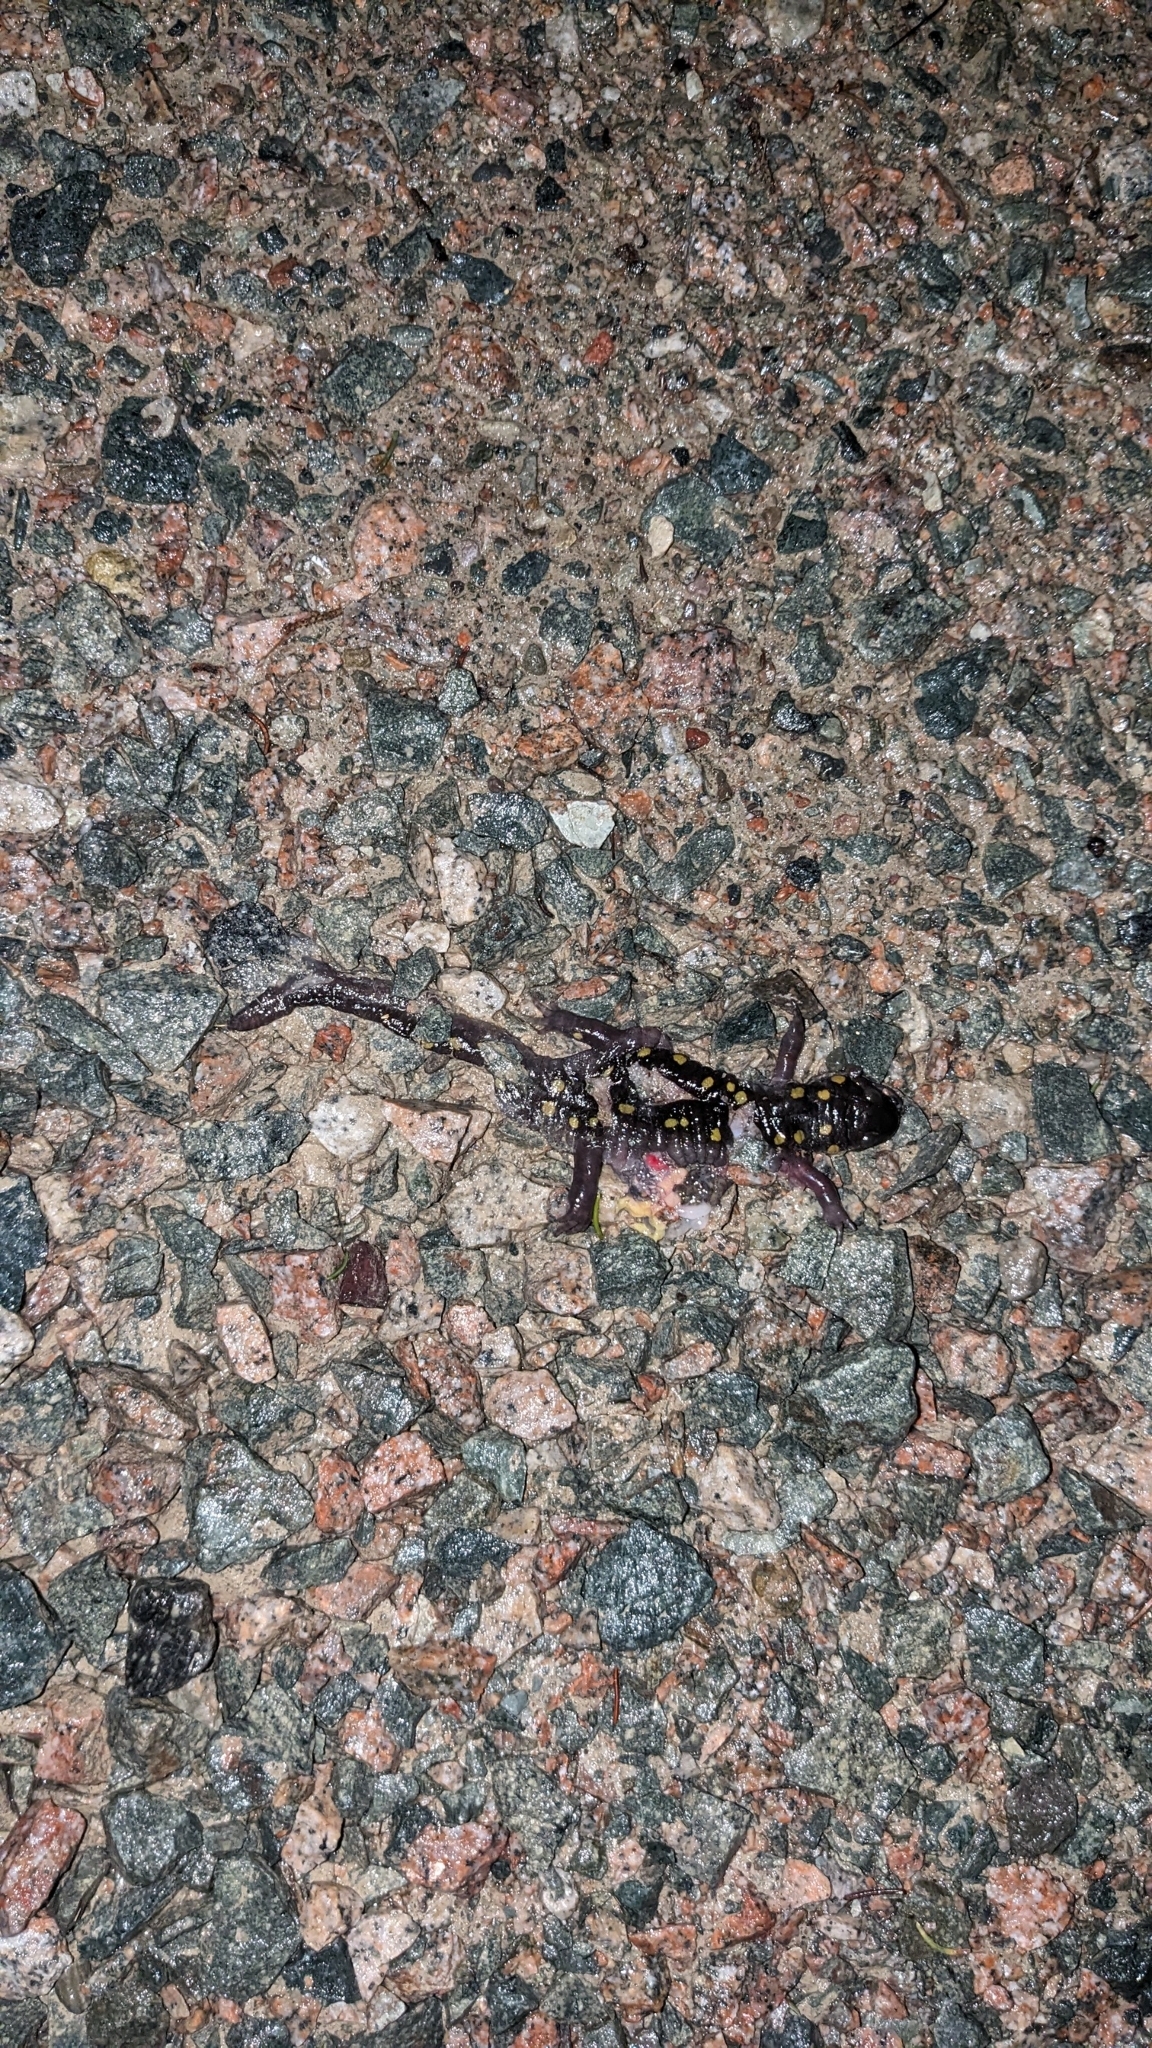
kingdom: Animalia
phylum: Chordata
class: Amphibia
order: Caudata
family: Ambystomatidae
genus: Ambystoma
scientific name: Ambystoma maculatum
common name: Spotted salamander
